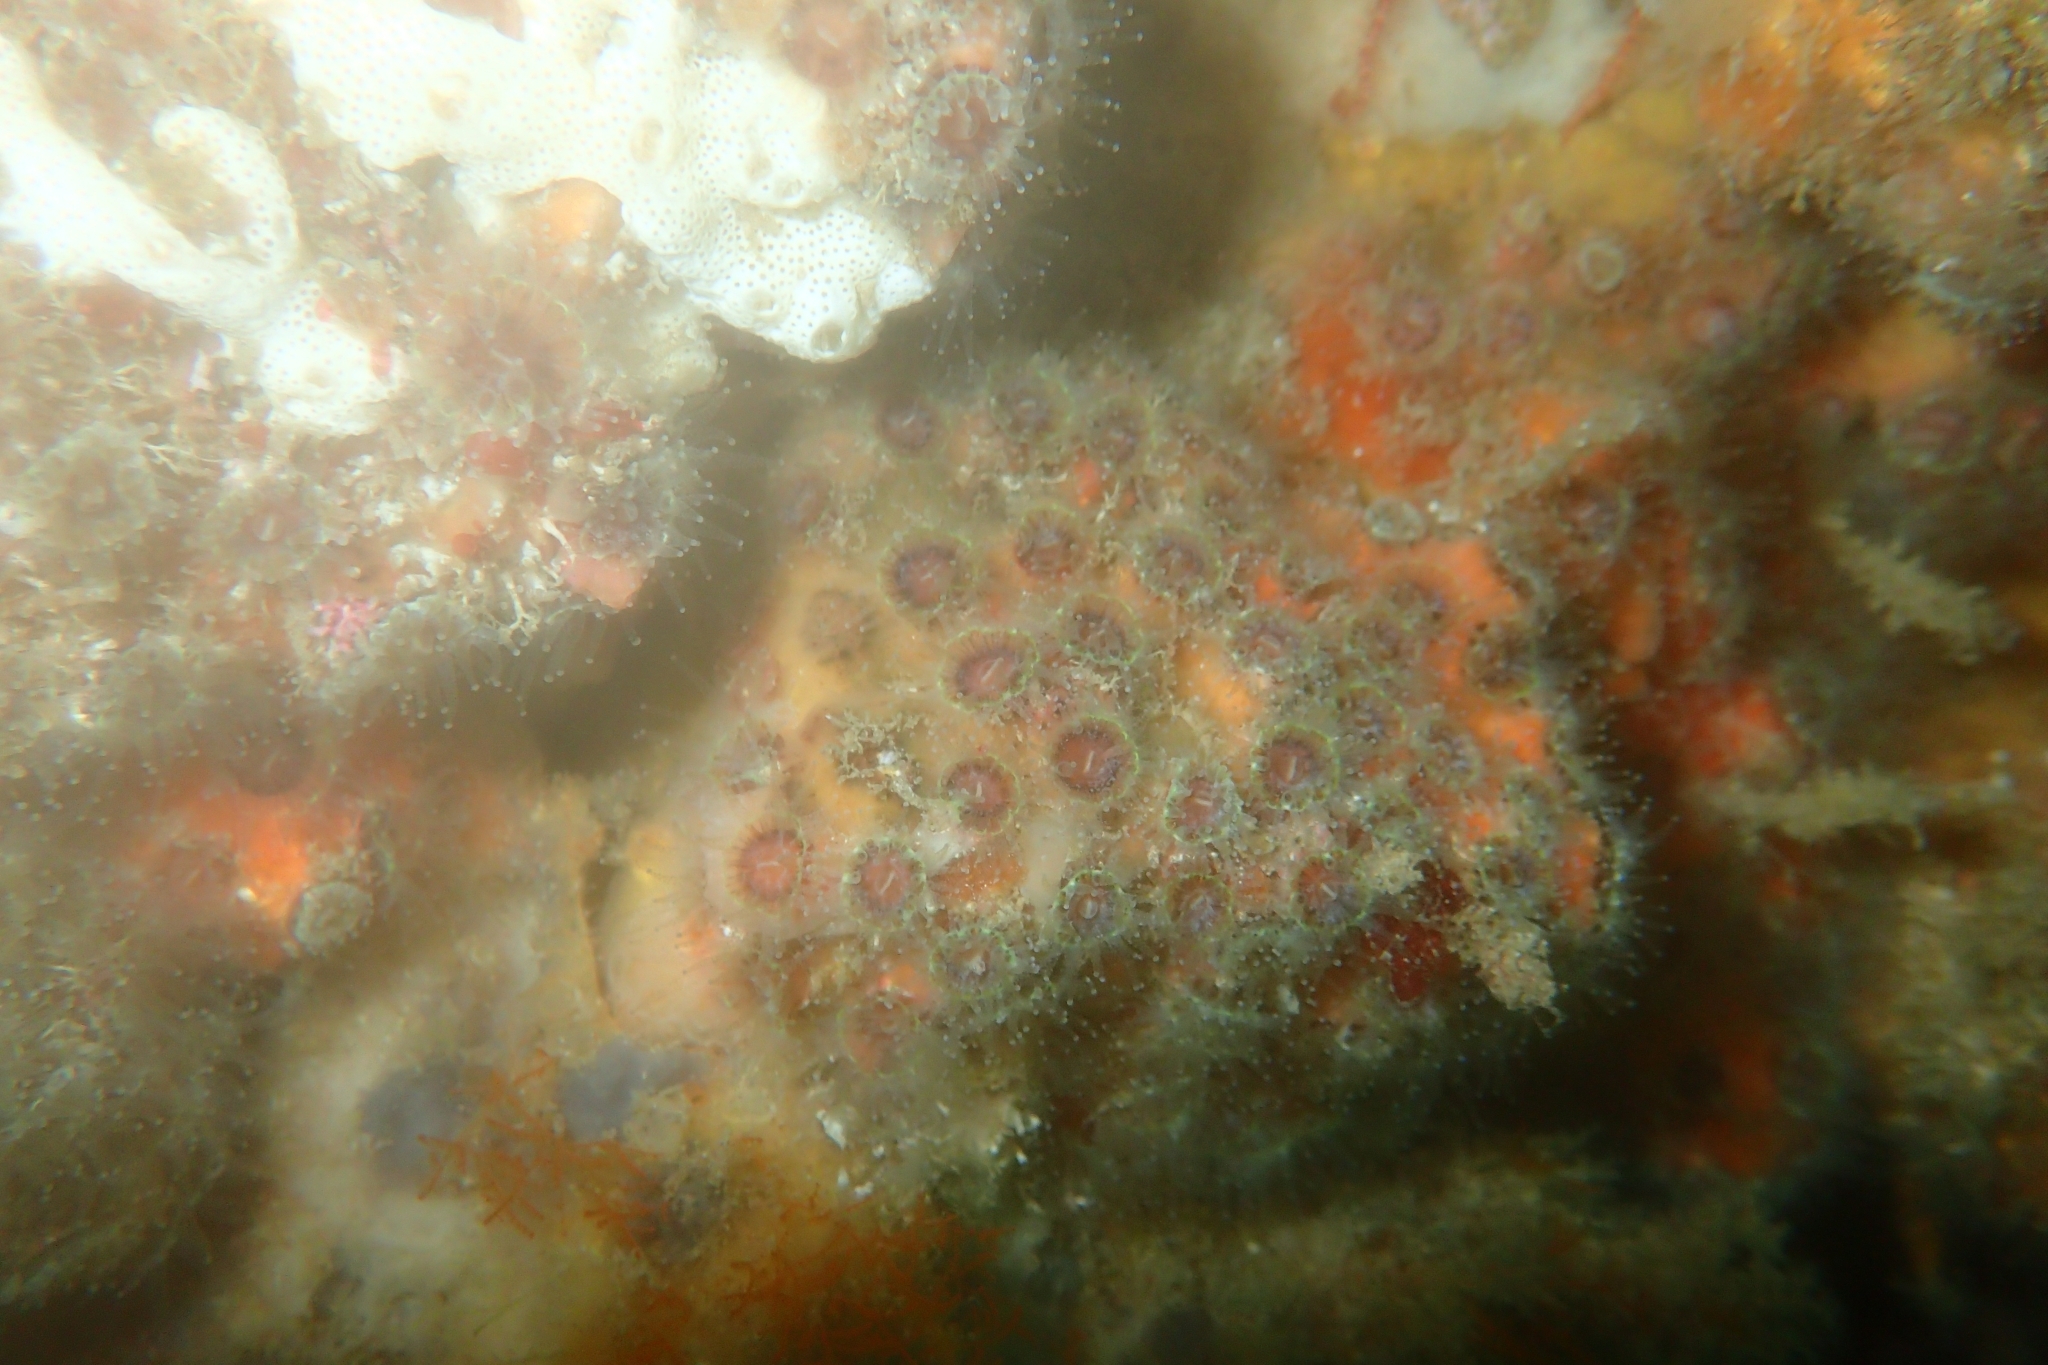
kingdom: Animalia
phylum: Cnidaria
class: Anthozoa
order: Scleractinia
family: Rhizangiidae
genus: Culicia
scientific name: Culicia rubeola
